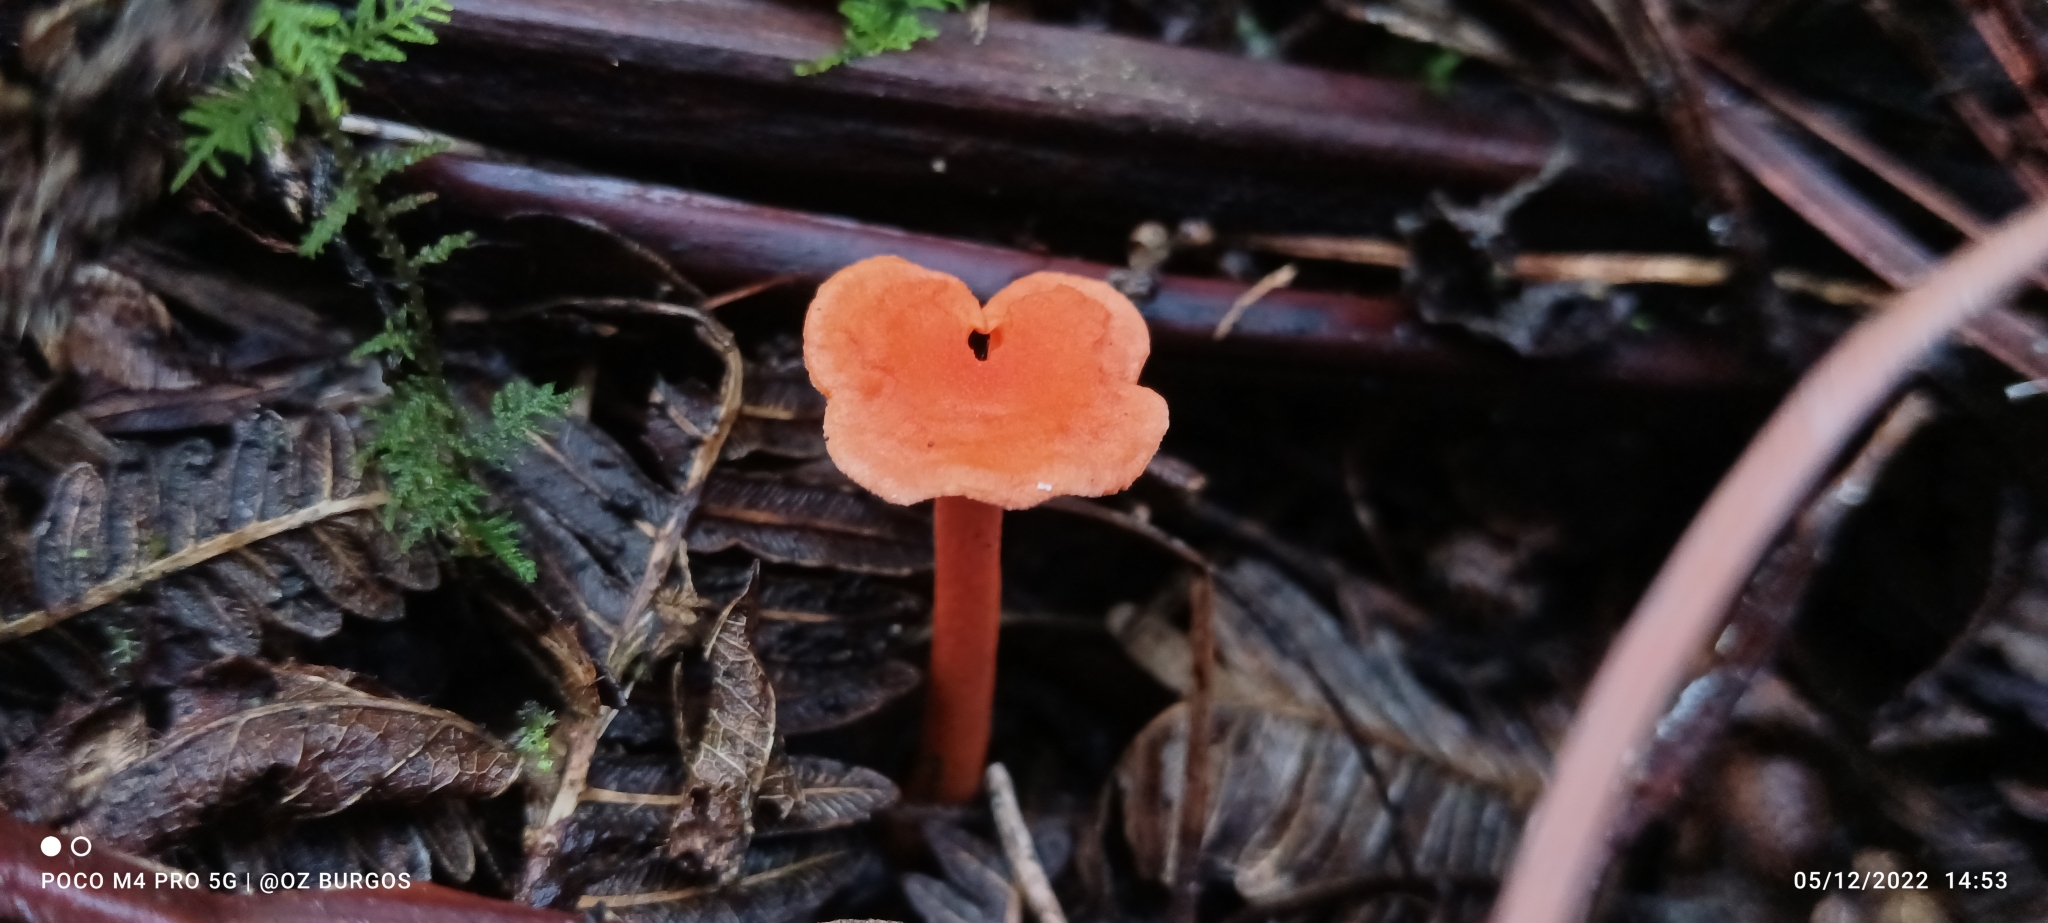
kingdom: Fungi
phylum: Basidiomycota
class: Agaricomycetes
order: Cantharellales
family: Hydnaceae
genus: Cantharellus
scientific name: Cantharellus cinnabarinus
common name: Cinnabar chanterelle
